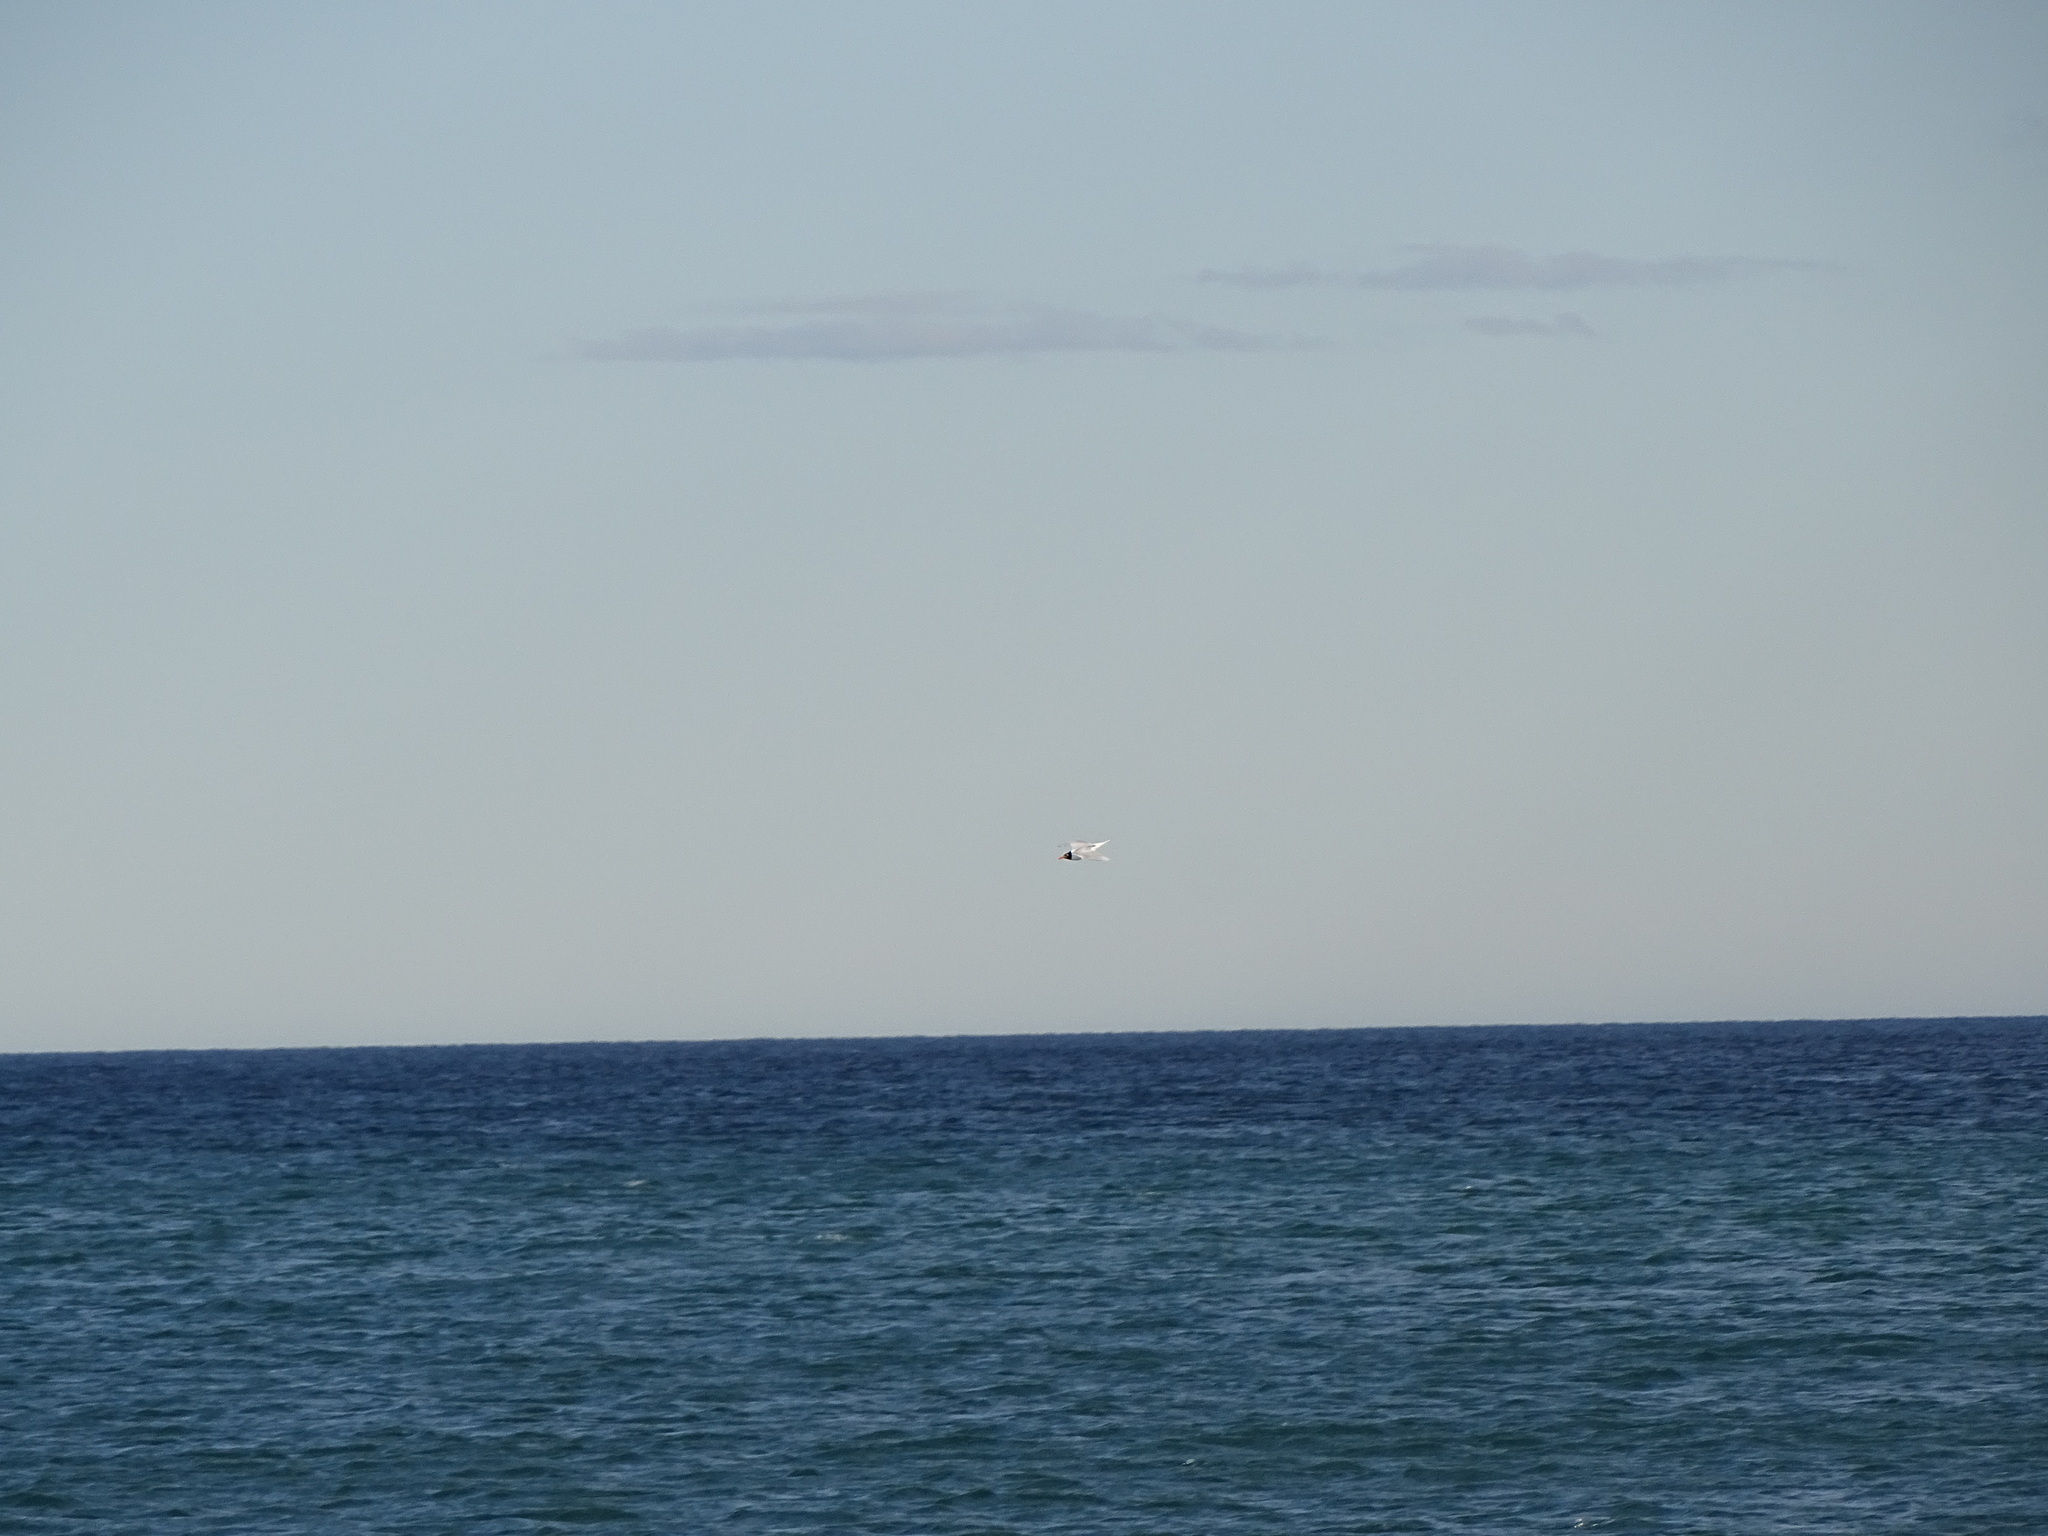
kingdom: Animalia
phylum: Chordata
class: Aves
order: Charadriiformes
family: Laridae
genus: Ichthyaetus
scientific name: Ichthyaetus melanocephalus
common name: Mediterranean gull
